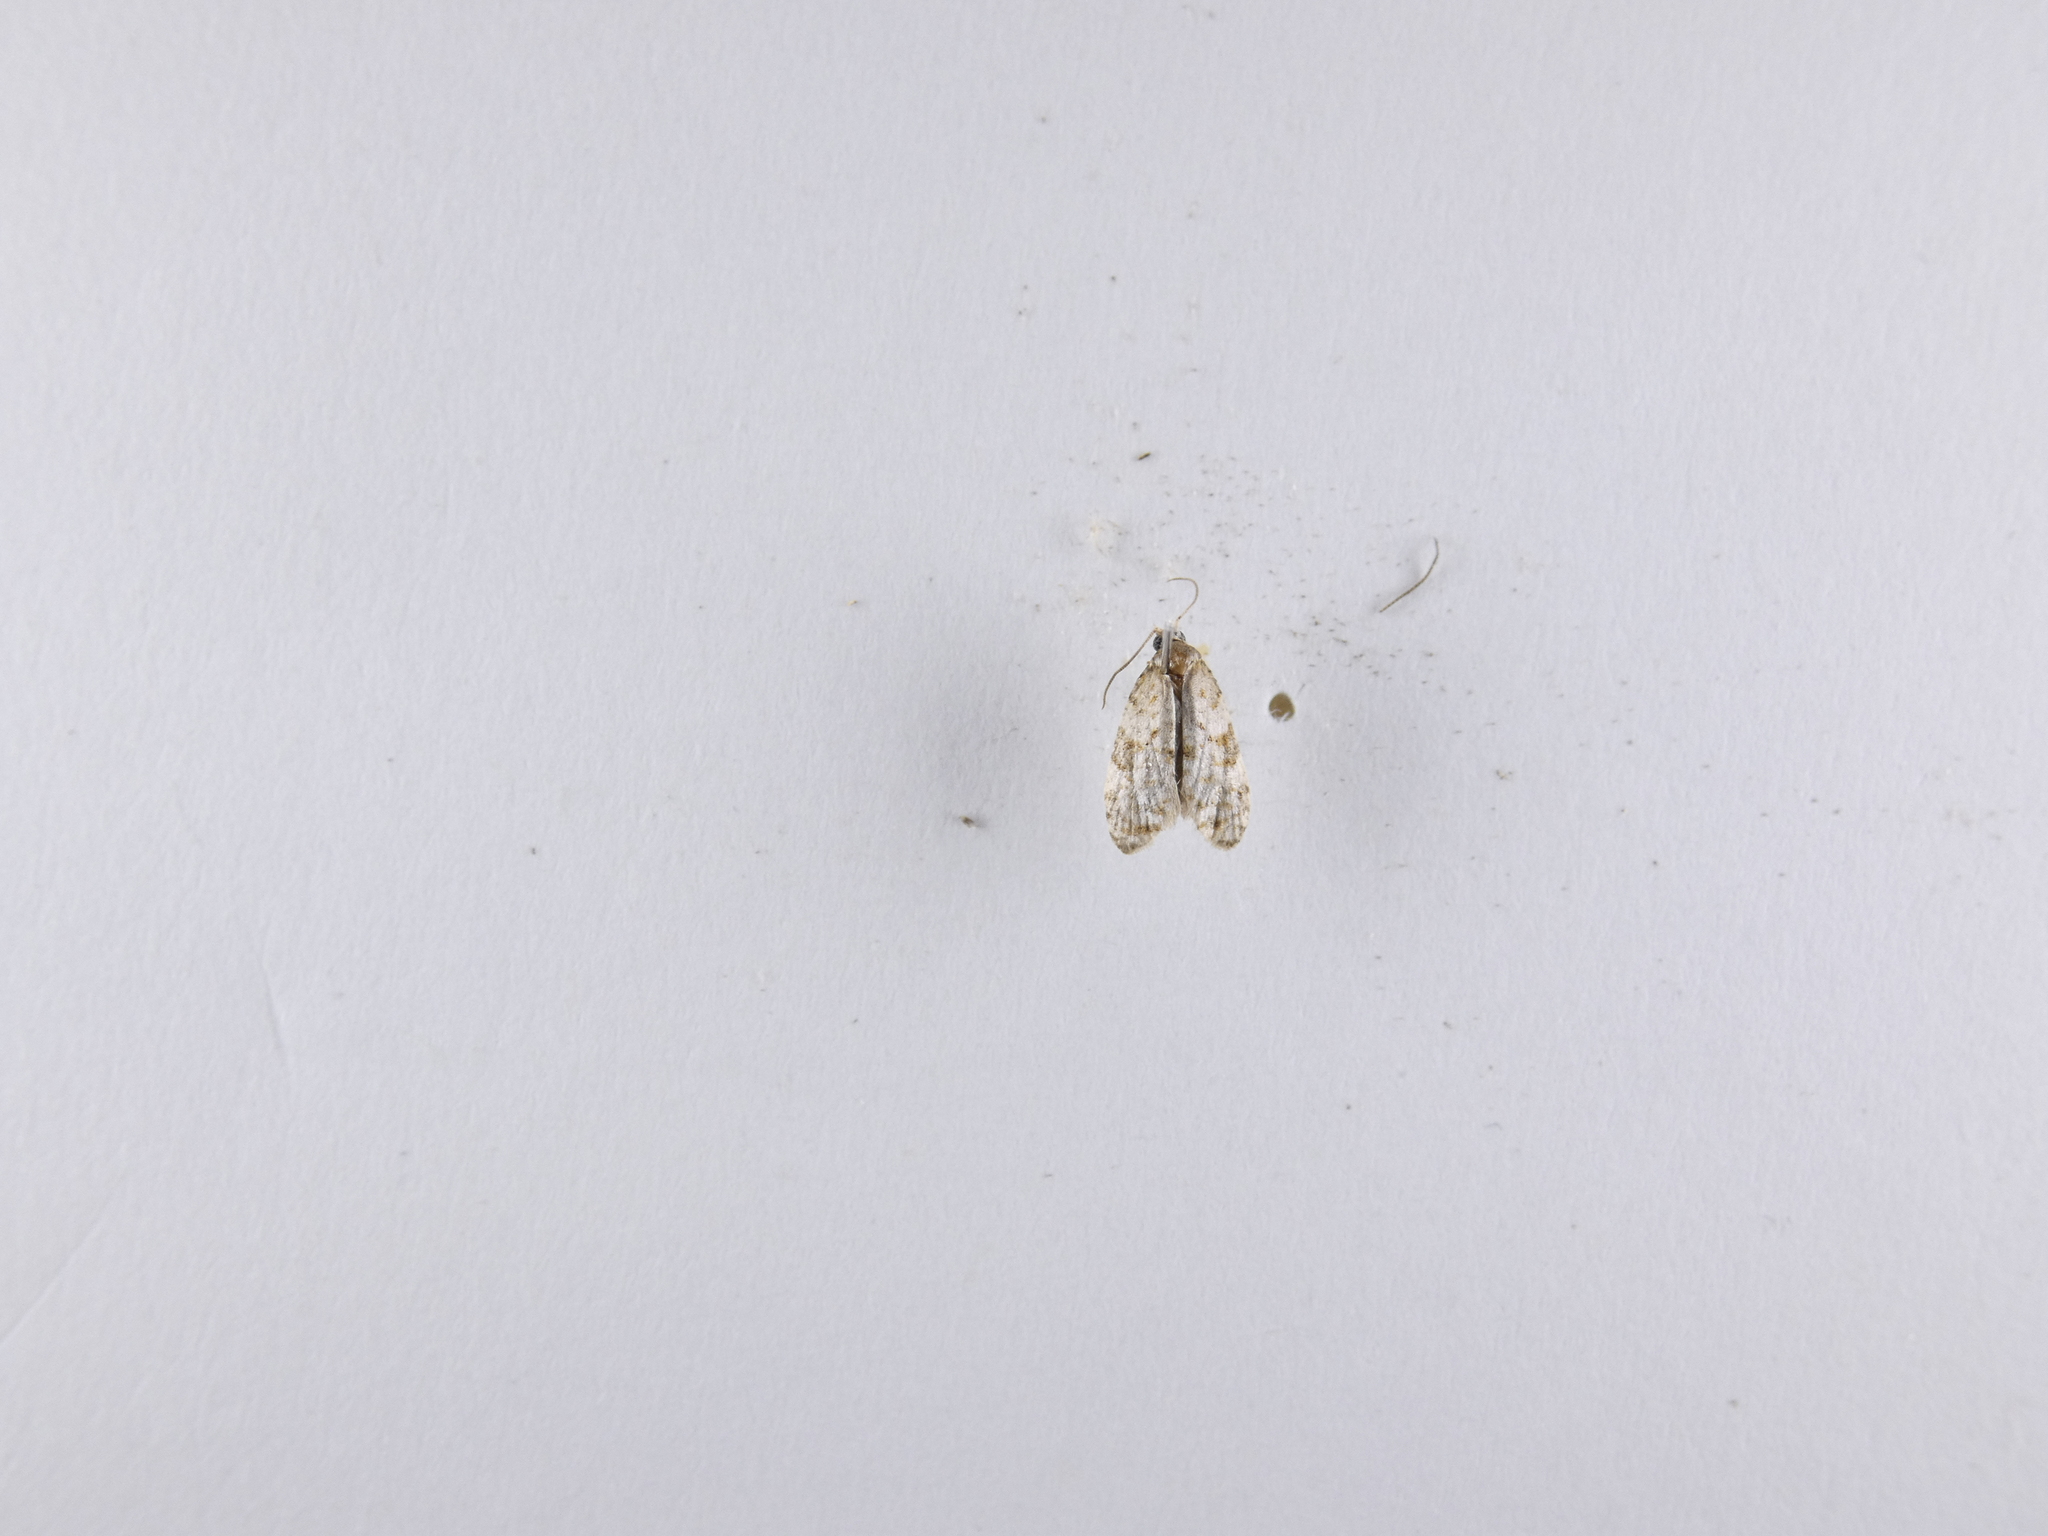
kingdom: Animalia
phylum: Arthropoda
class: Insecta
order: Lepidoptera
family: Tortricidae
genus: Dipterina
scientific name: Dipterina imbriferana
